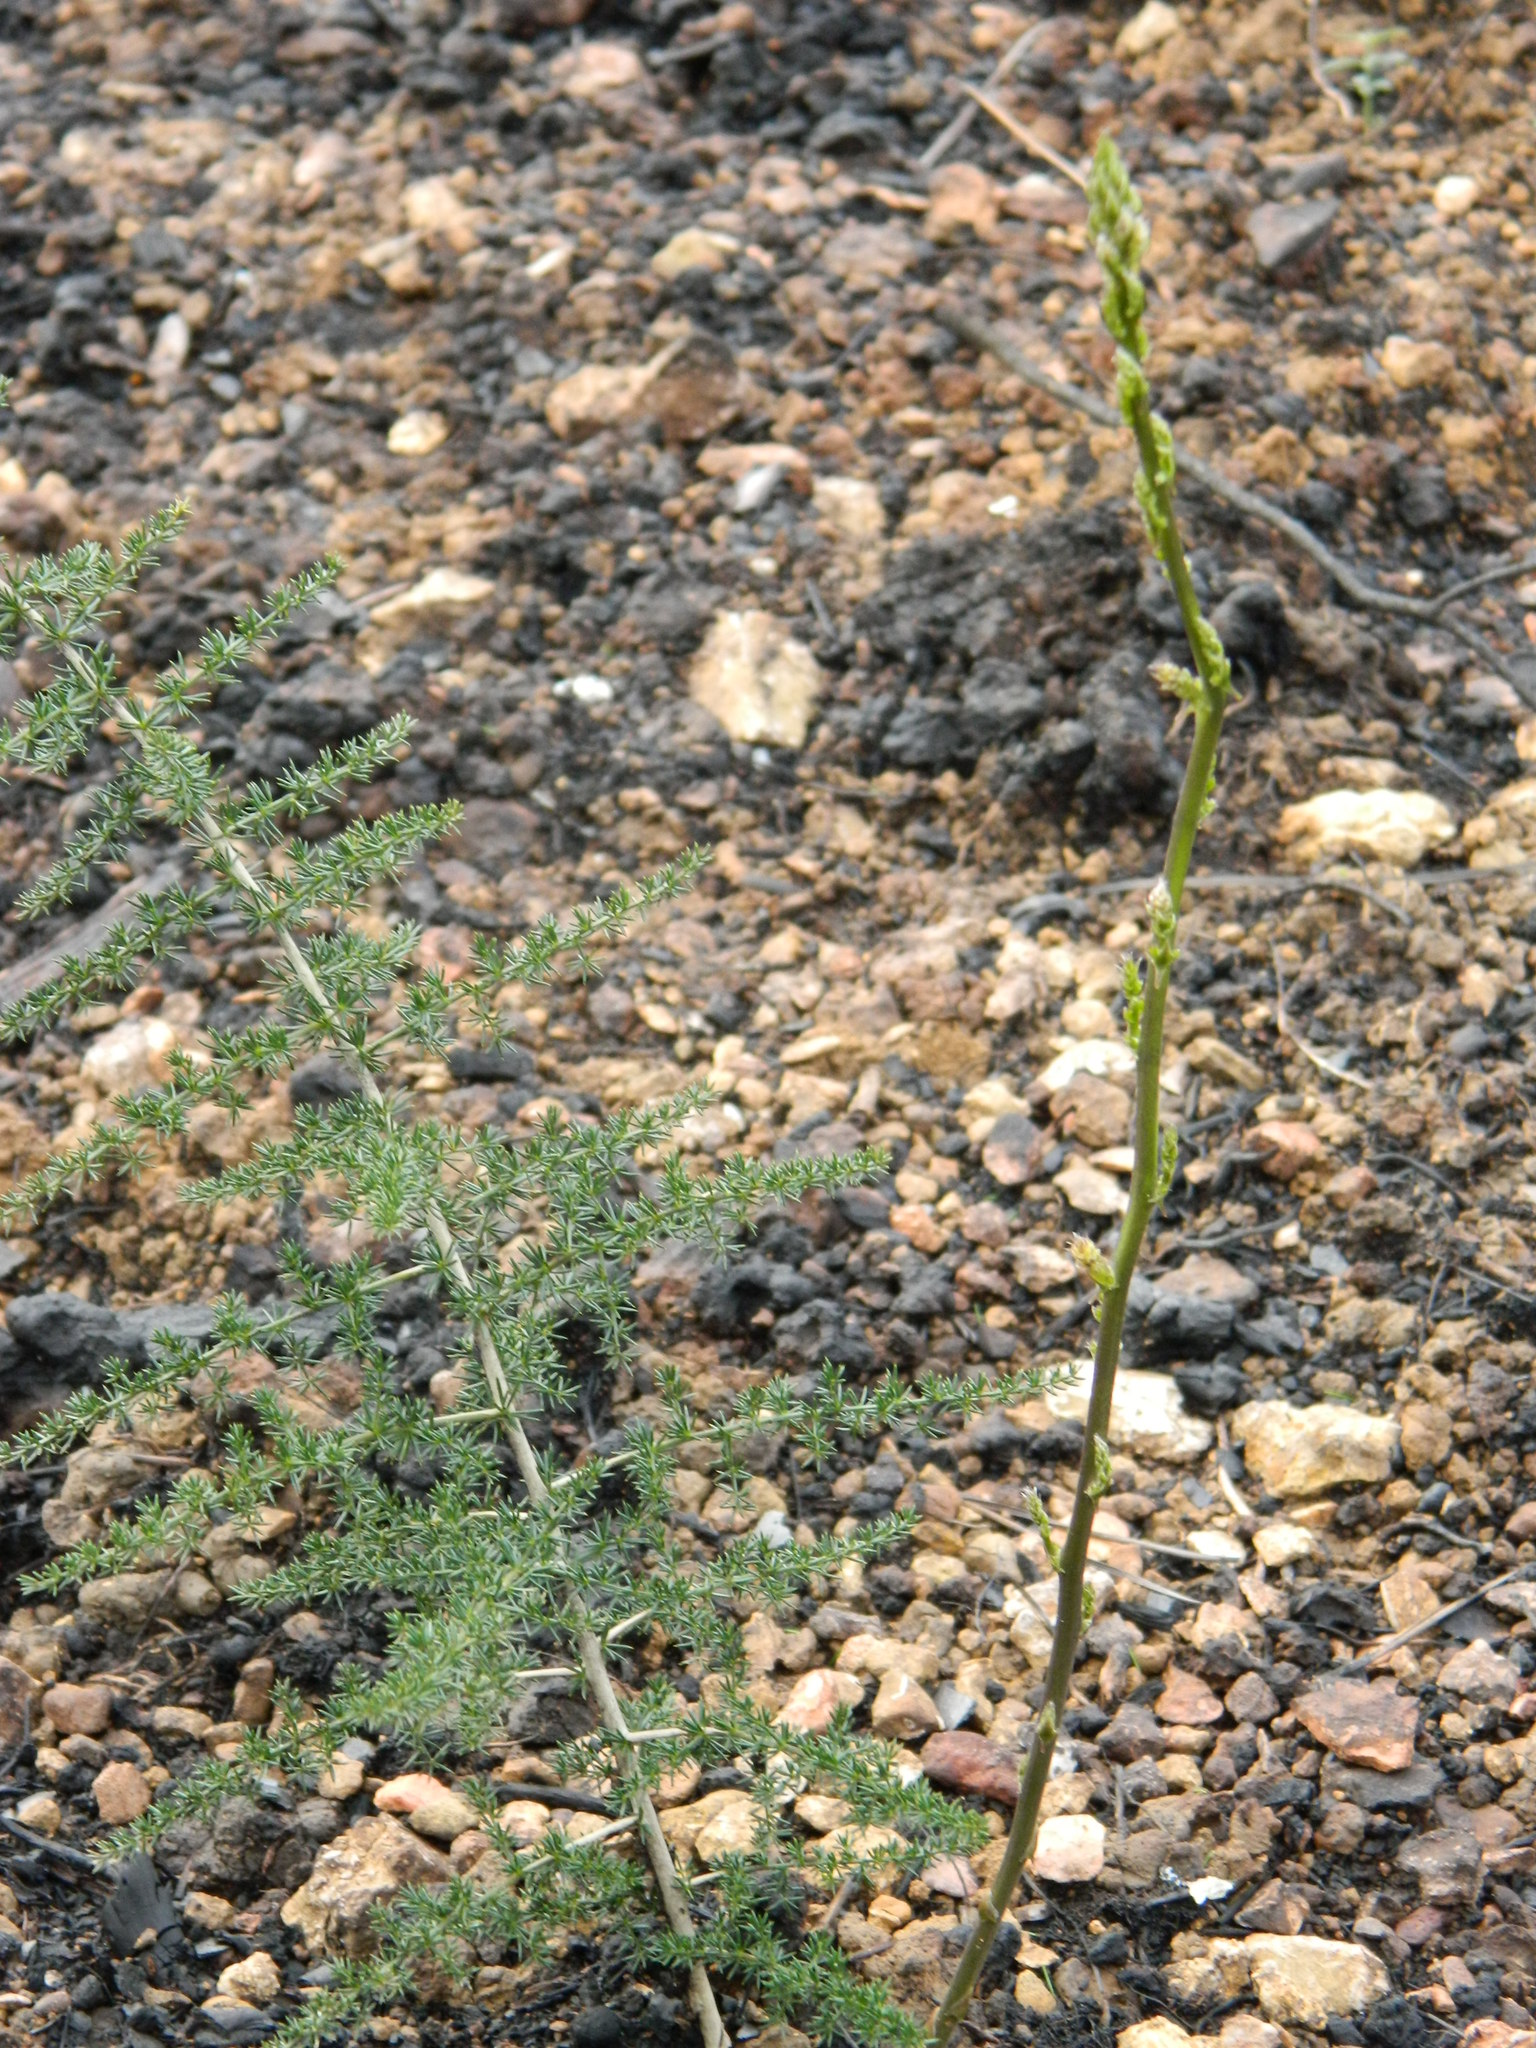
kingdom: Plantae
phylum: Tracheophyta
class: Liliopsida
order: Asparagales
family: Asparagaceae
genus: Asparagus
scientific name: Asparagus acutifolius
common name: Wild asparagus
